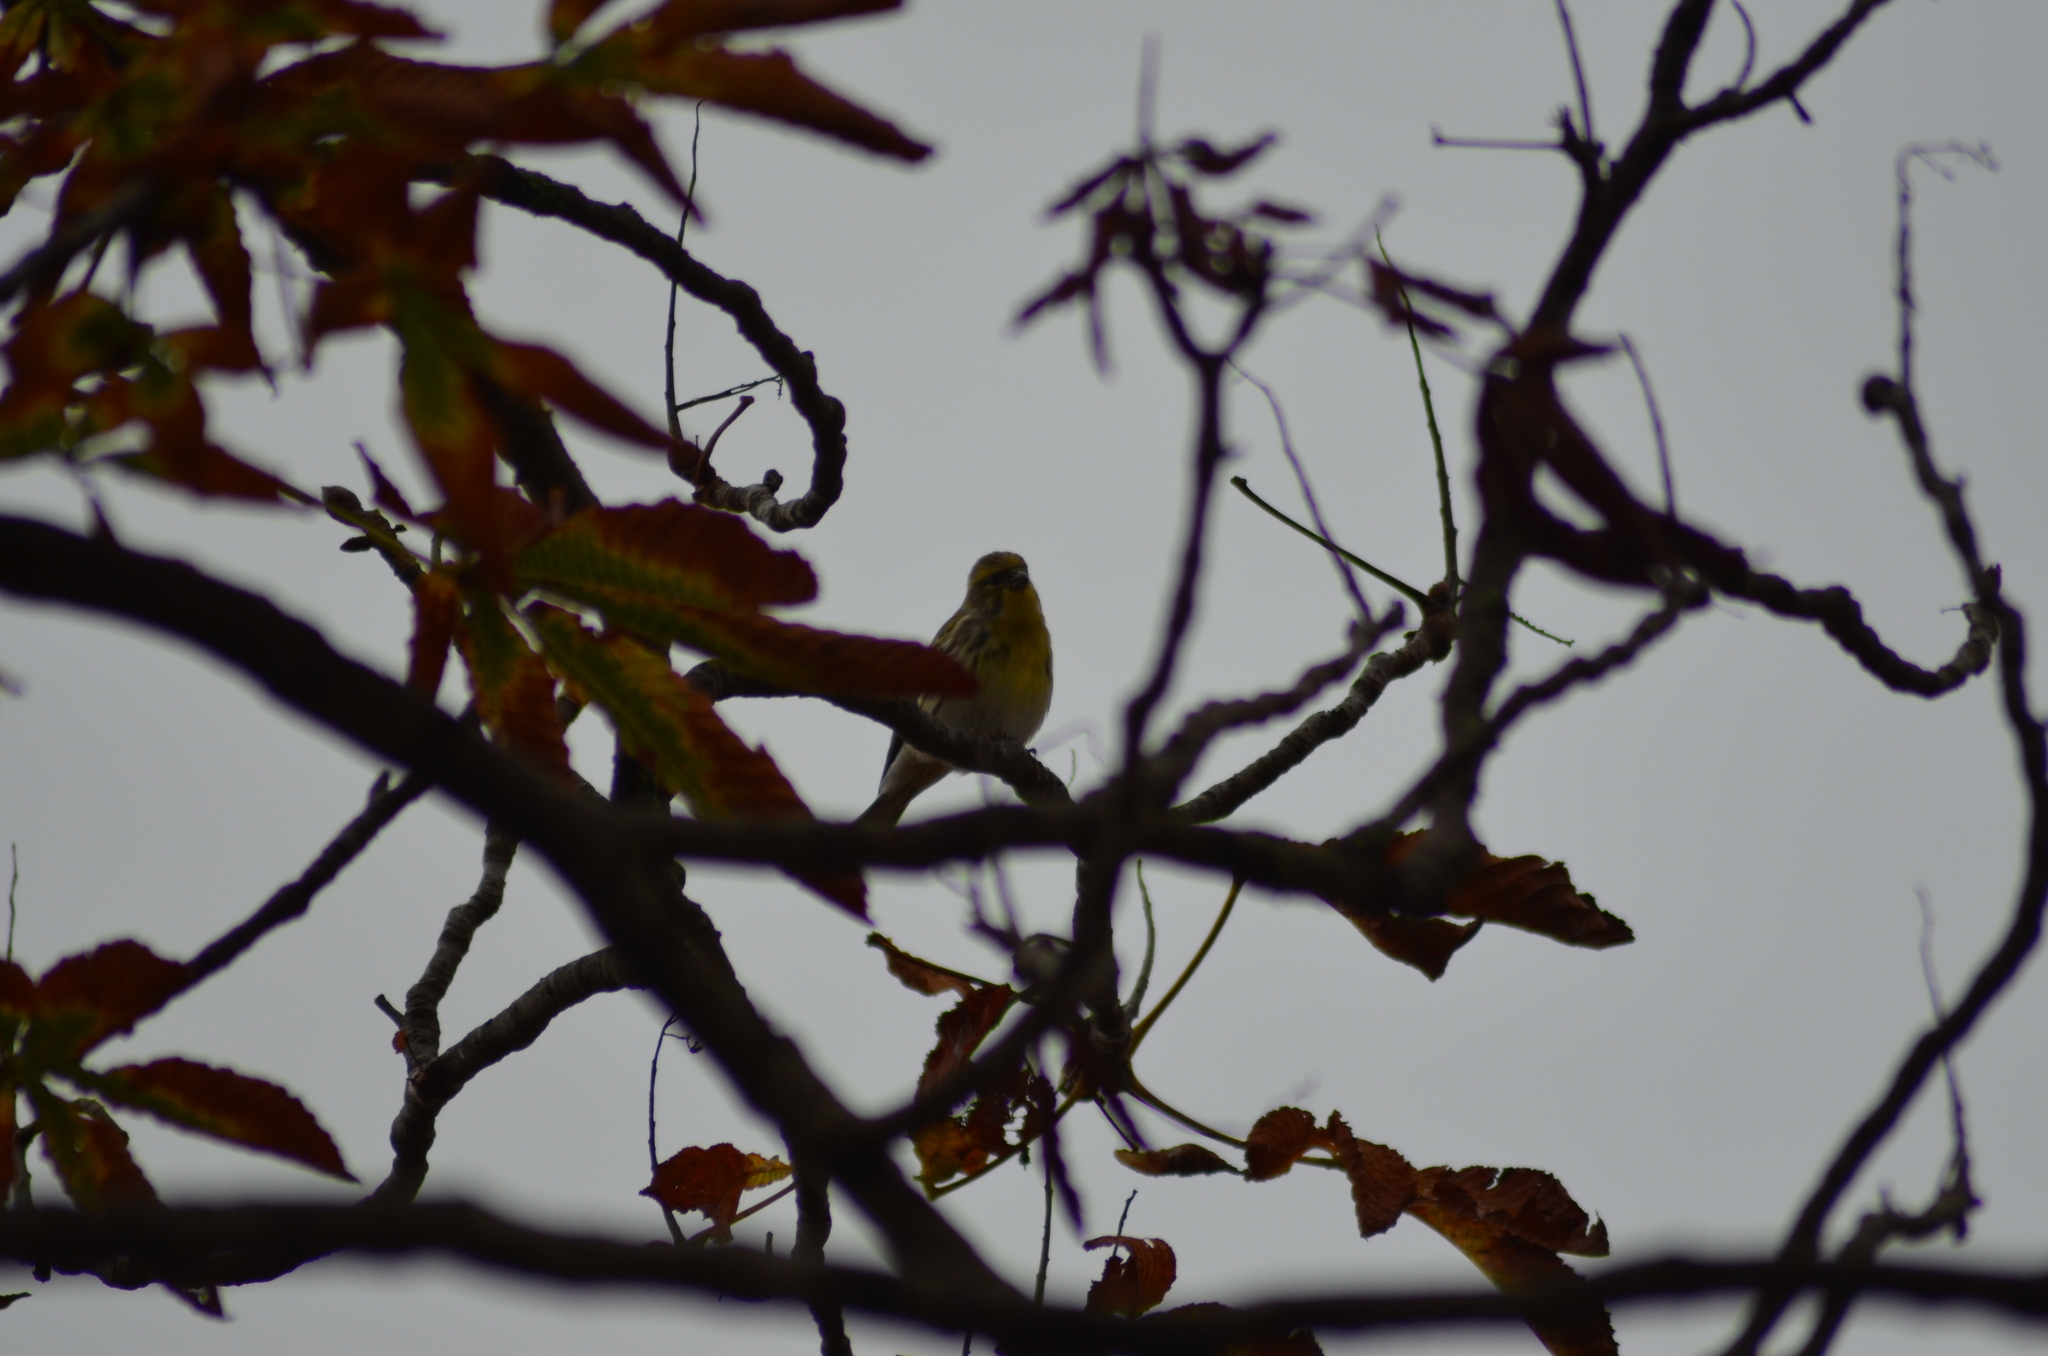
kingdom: Animalia
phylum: Chordata
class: Aves
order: Passeriformes
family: Fringillidae
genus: Serinus
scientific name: Serinus serinus
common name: European serin
